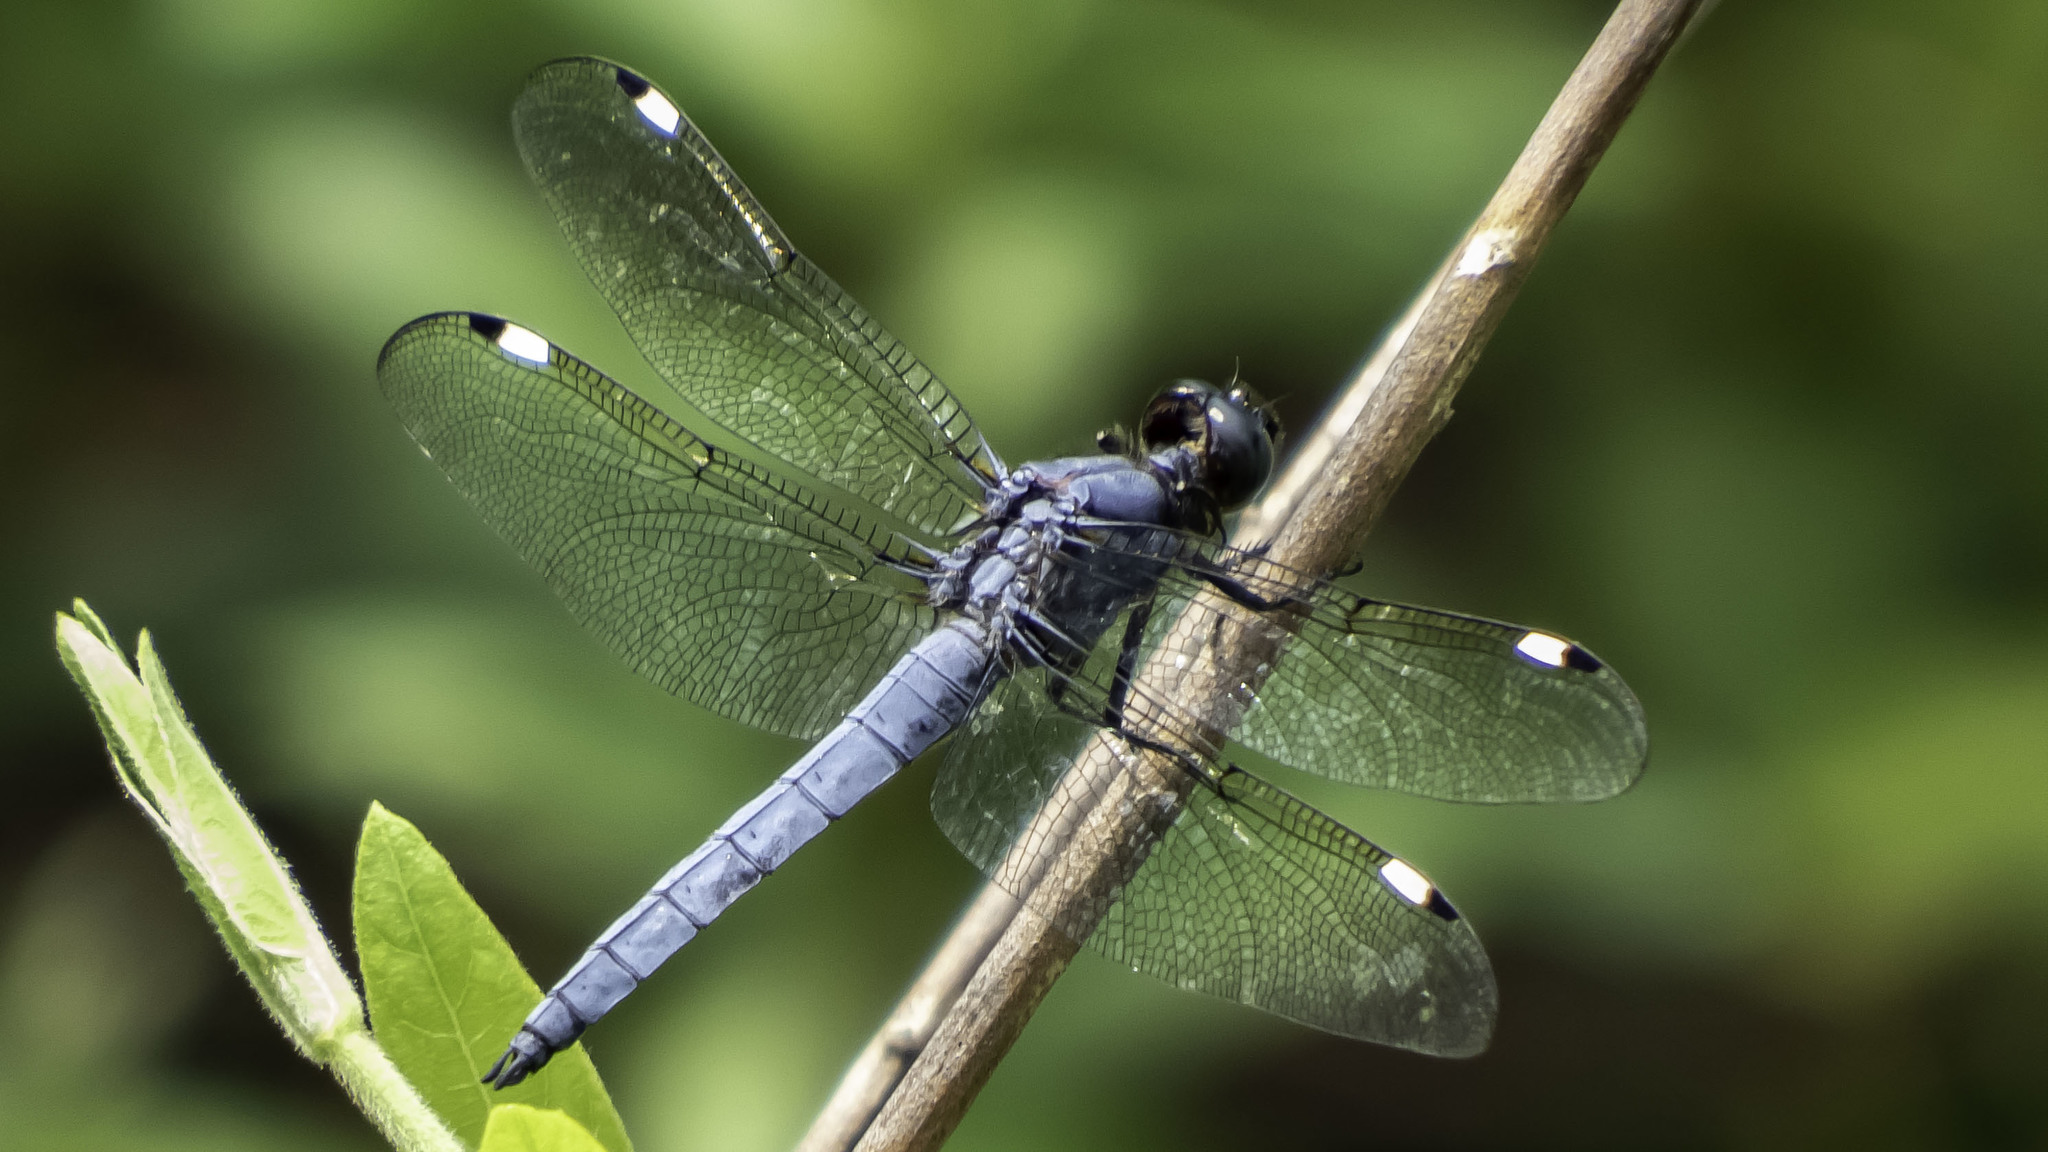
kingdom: Animalia
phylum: Arthropoda
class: Insecta
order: Odonata
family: Libellulidae
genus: Libellula
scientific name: Libellula cyanea
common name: Spangled skimmer
